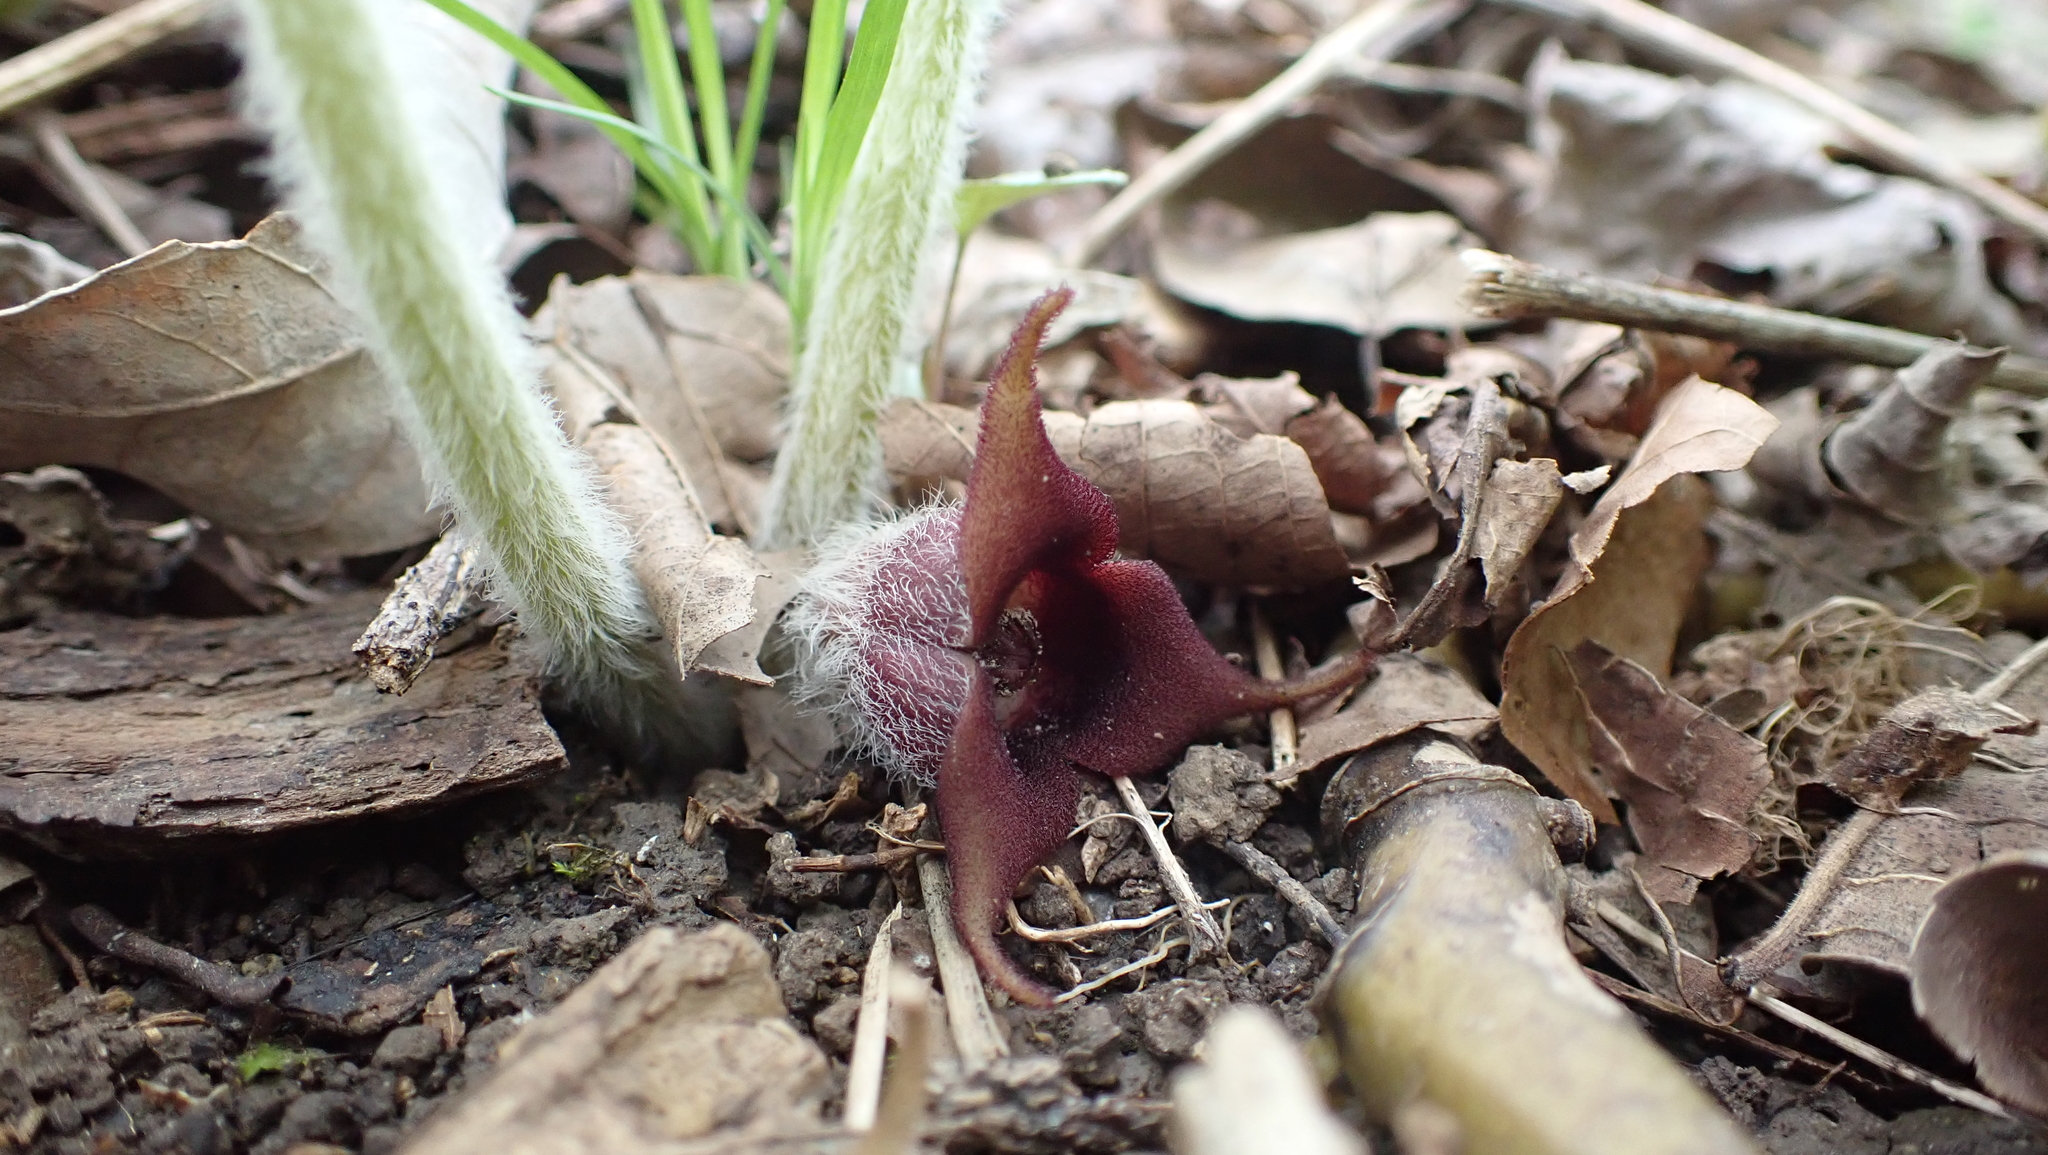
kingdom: Plantae
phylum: Tracheophyta
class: Magnoliopsida
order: Piperales
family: Aristolochiaceae
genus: Asarum
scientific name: Asarum canadense
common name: Wild ginger
